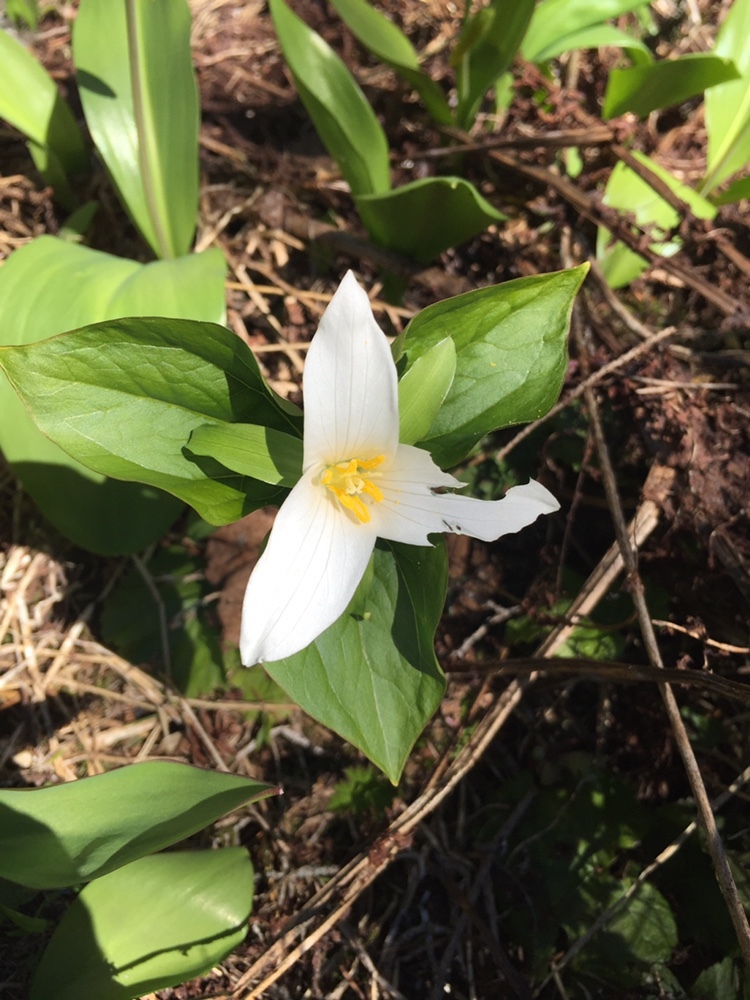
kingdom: Plantae
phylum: Tracheophyta
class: Liliopsida
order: Liliales
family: Melanthiaceae
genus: Trillium
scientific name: Trillium ovatum
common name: Pacific trillium
